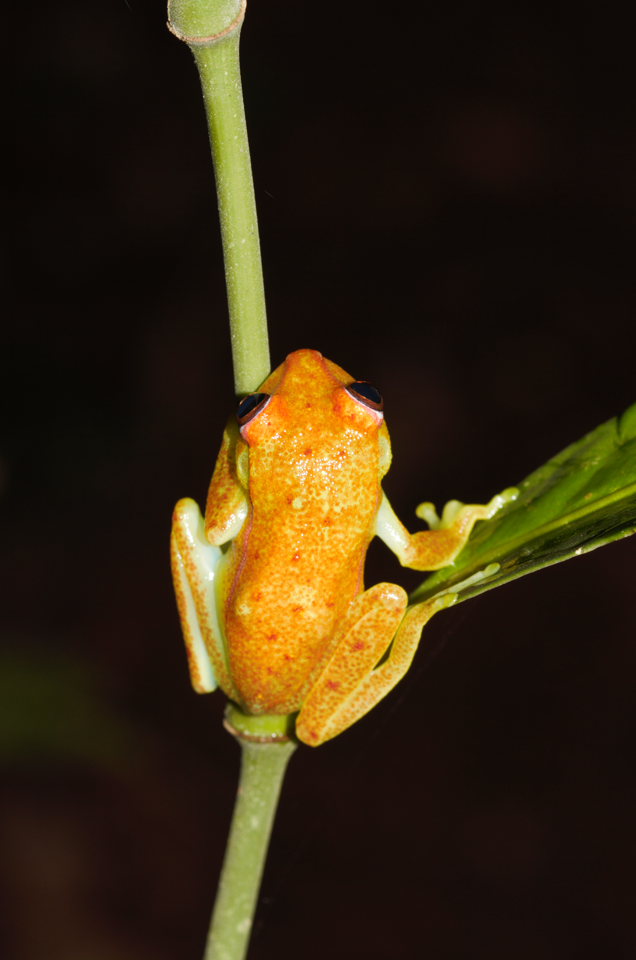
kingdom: Animalia
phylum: Chordata
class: Amphibia
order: Anura
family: Hylidae
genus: Boana
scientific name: Boana punctata
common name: Polka-dot treefrog
